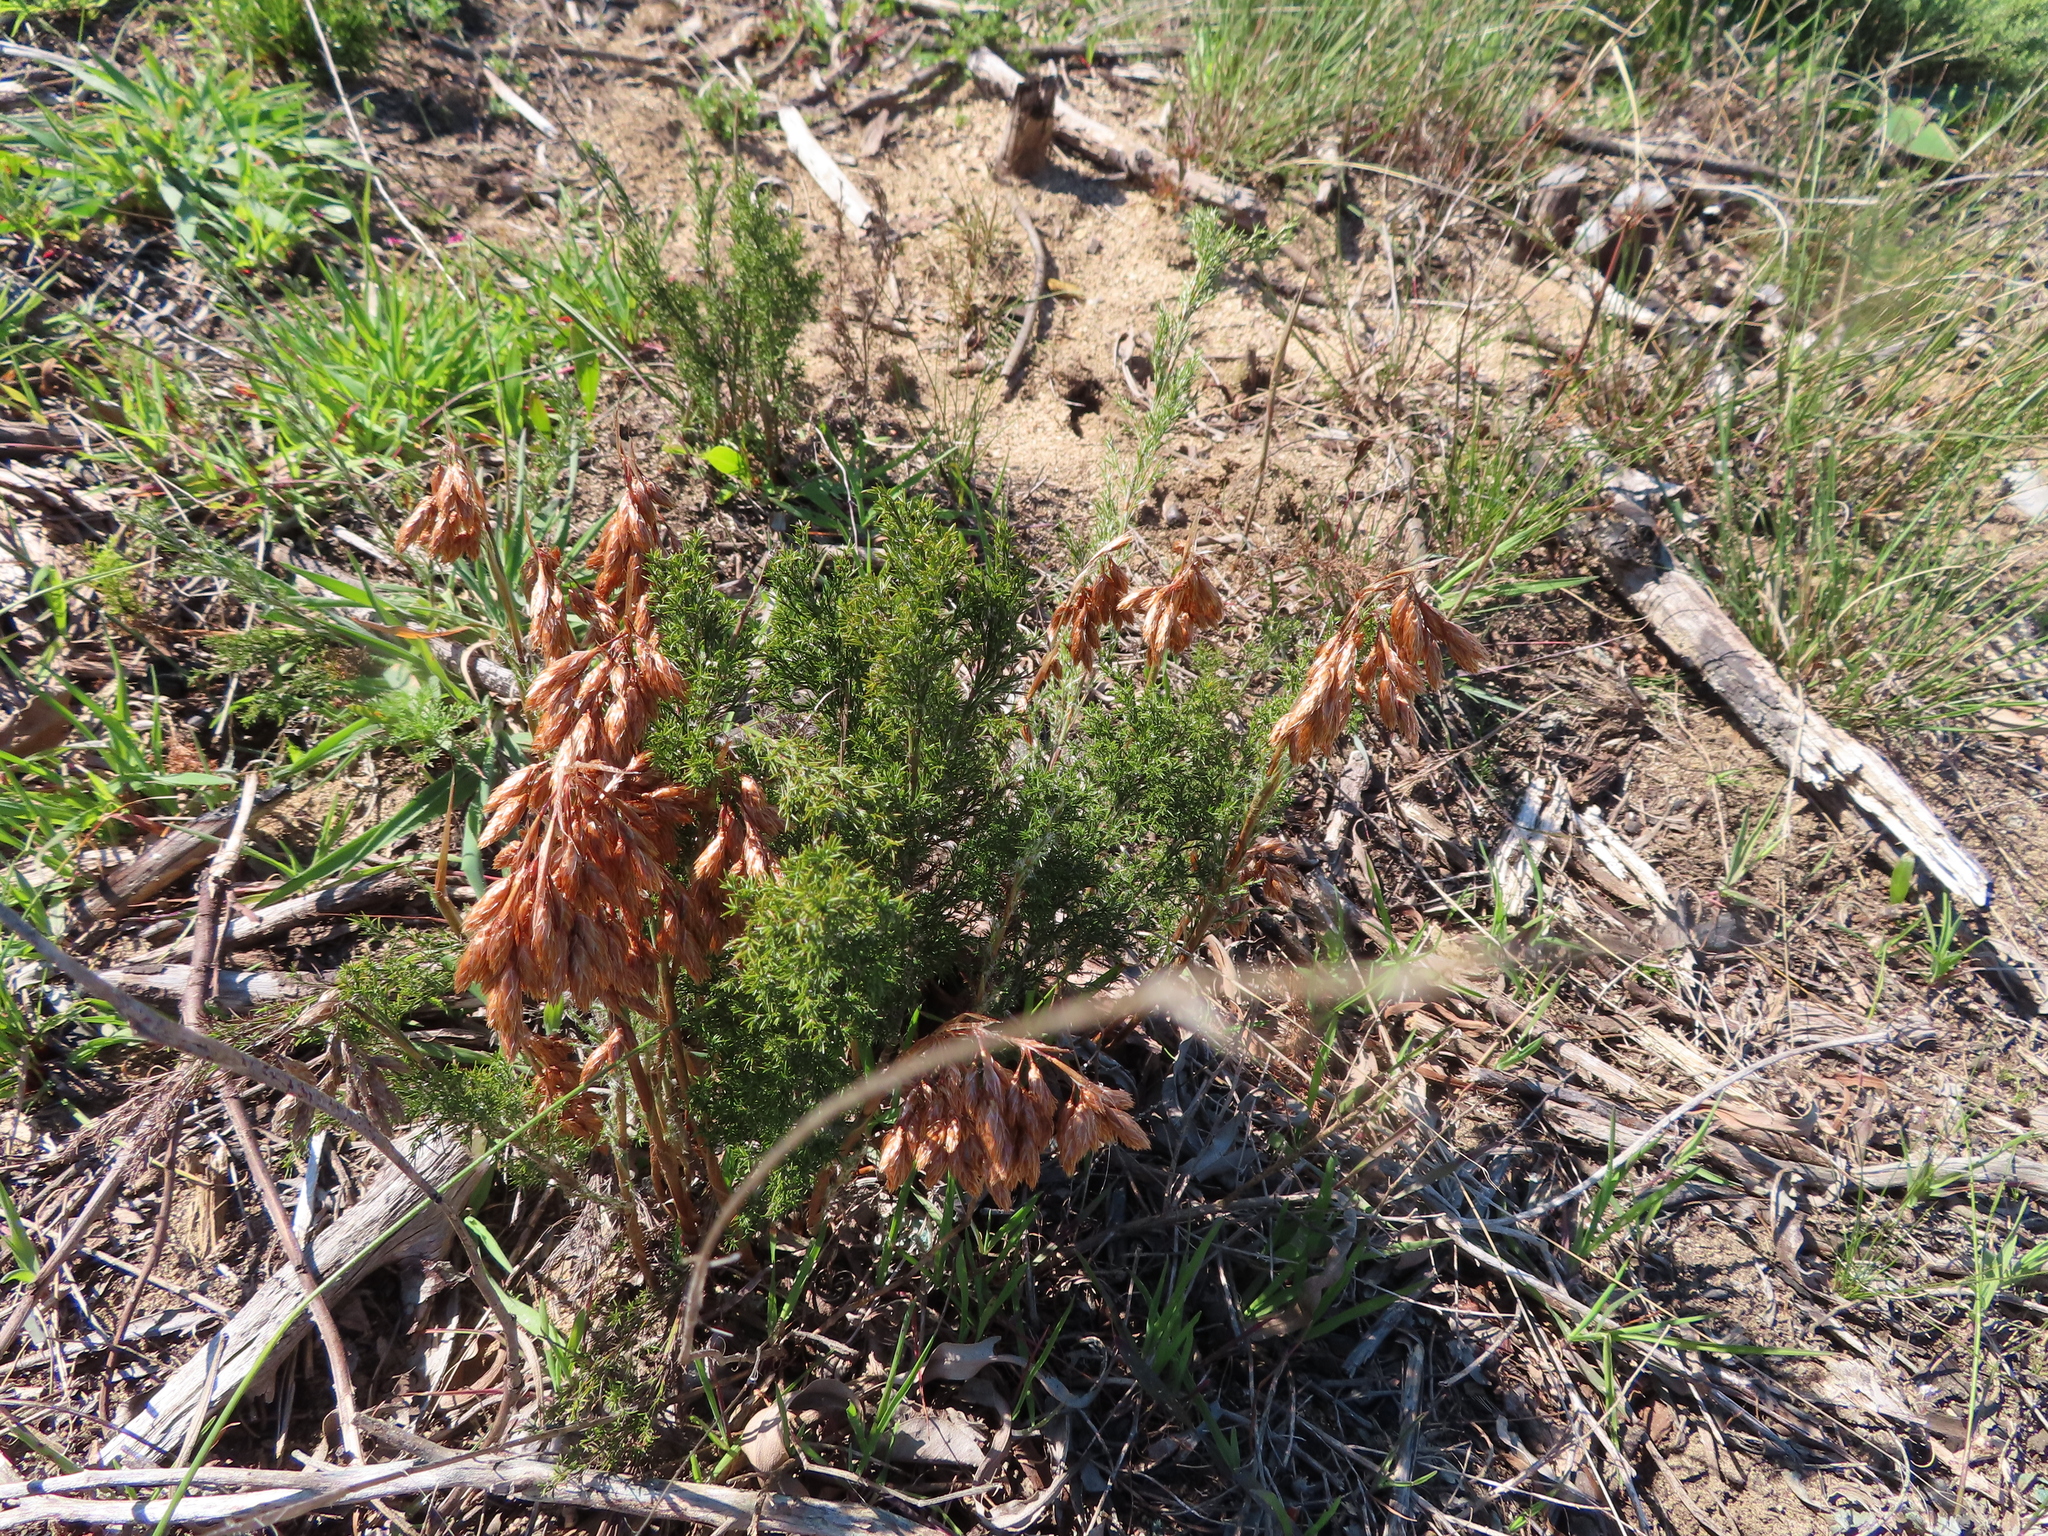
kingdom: Plantae
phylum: Tracheophyta
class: Liliopsida
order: Poales
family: Restionaceae
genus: Thamnochortus
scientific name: Thamnochortus fruticosus
